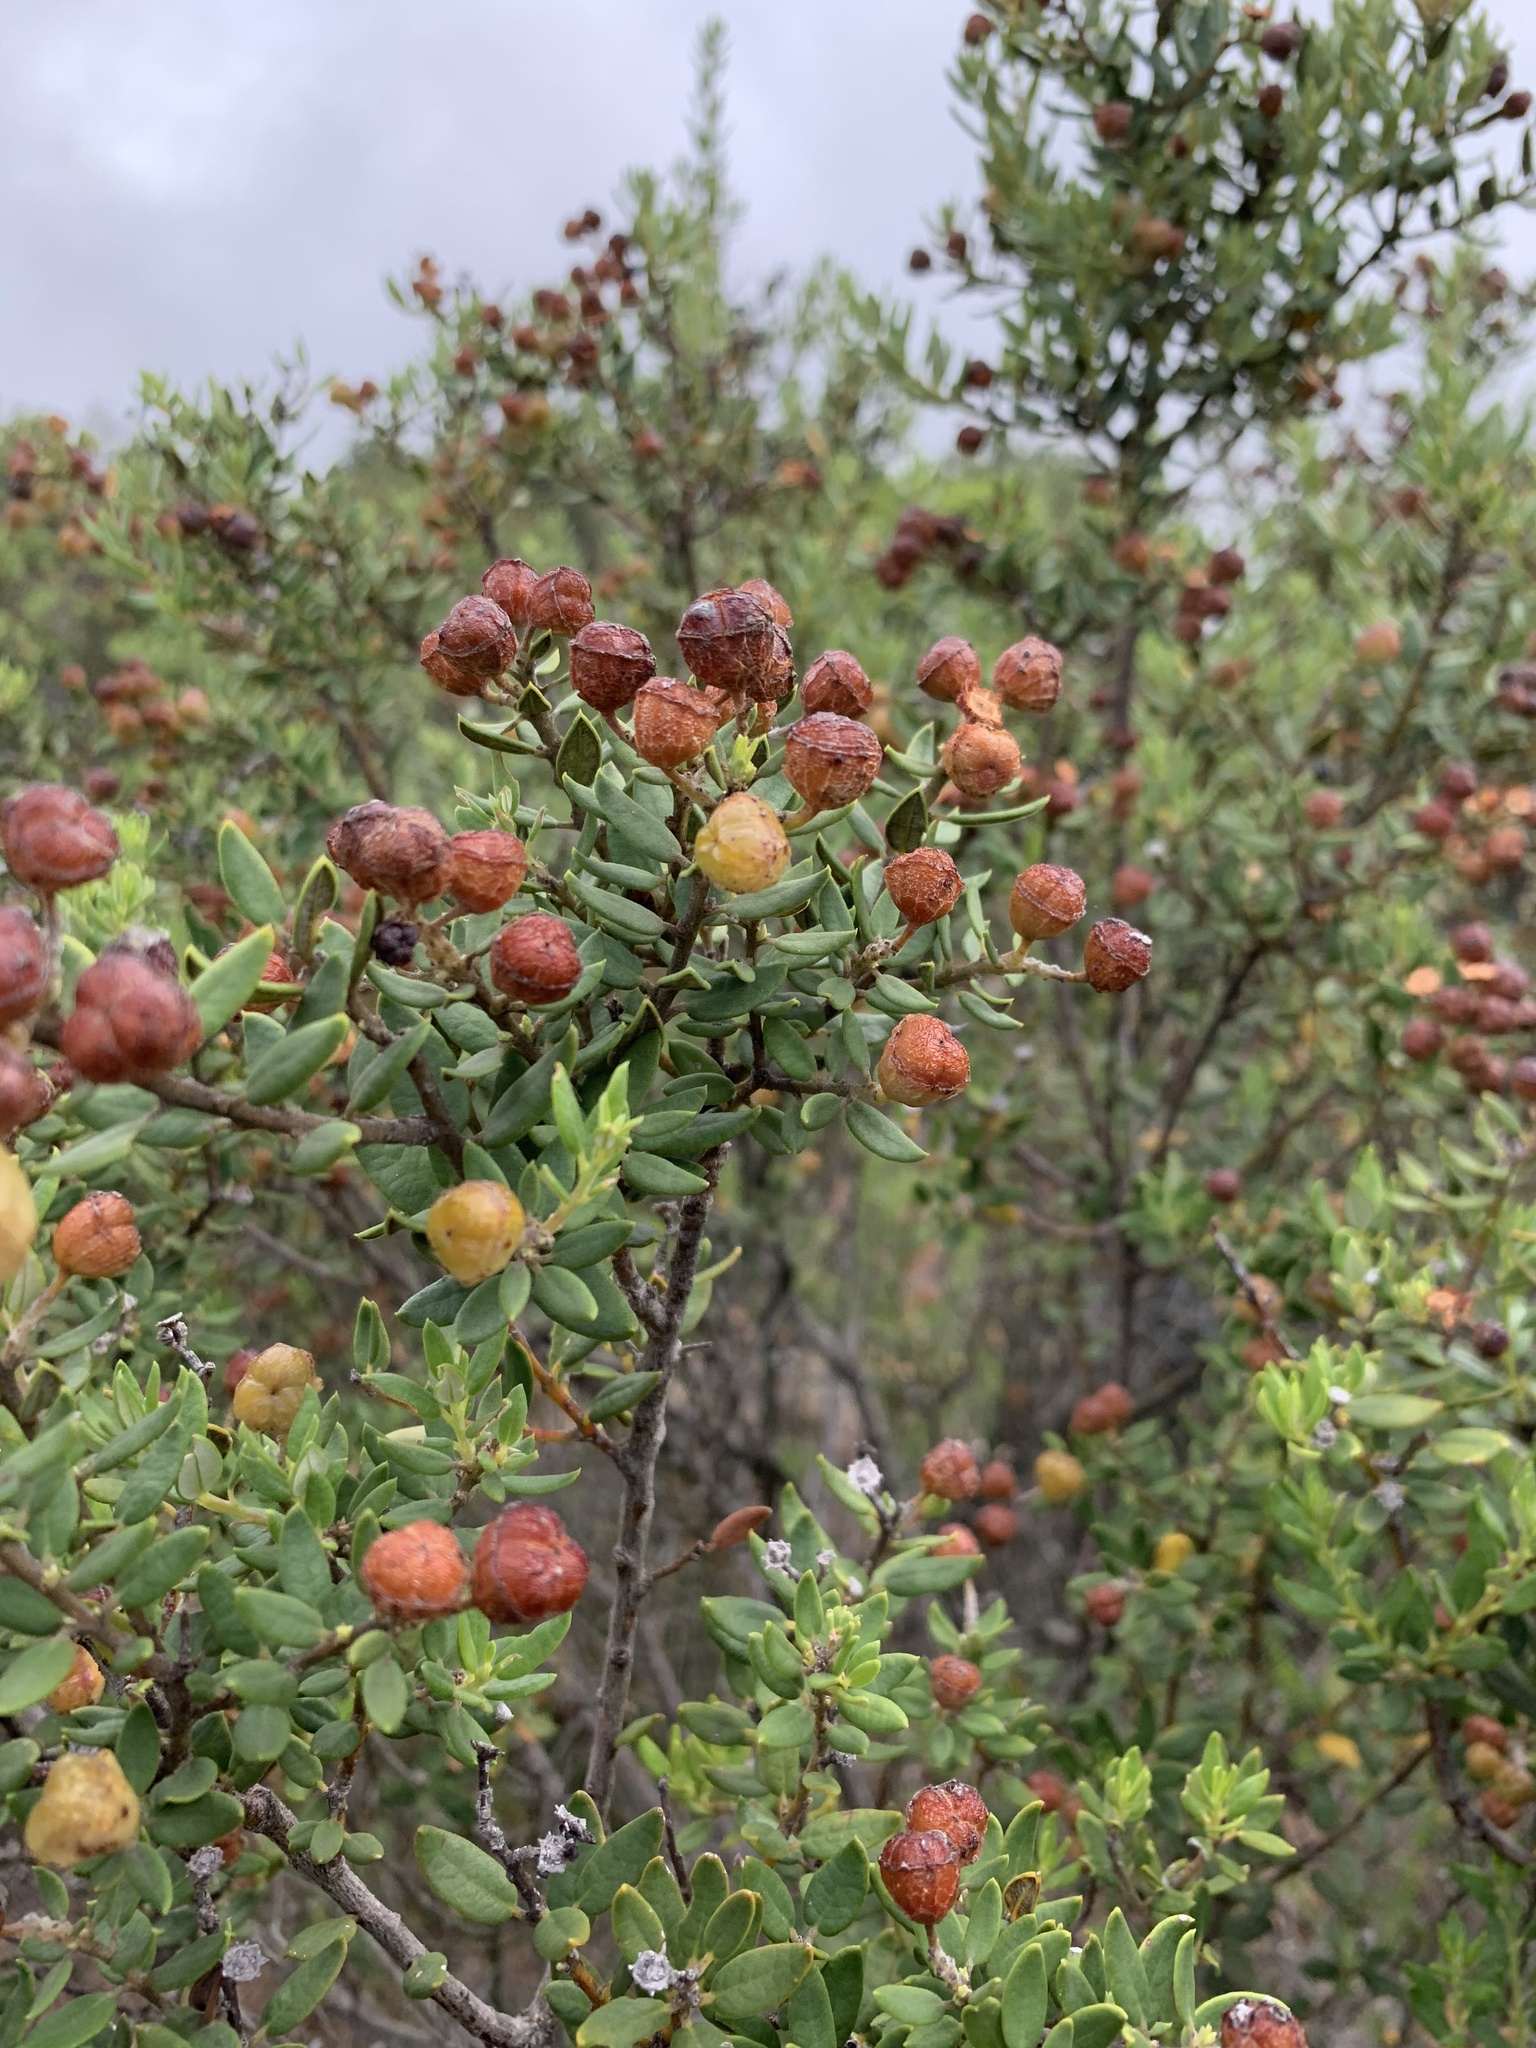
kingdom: Plantae
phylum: Tracheophyta
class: Magnoliopsida
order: Rosales
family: Rhamnaceae
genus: Phylica
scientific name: Phylica oleifolia
